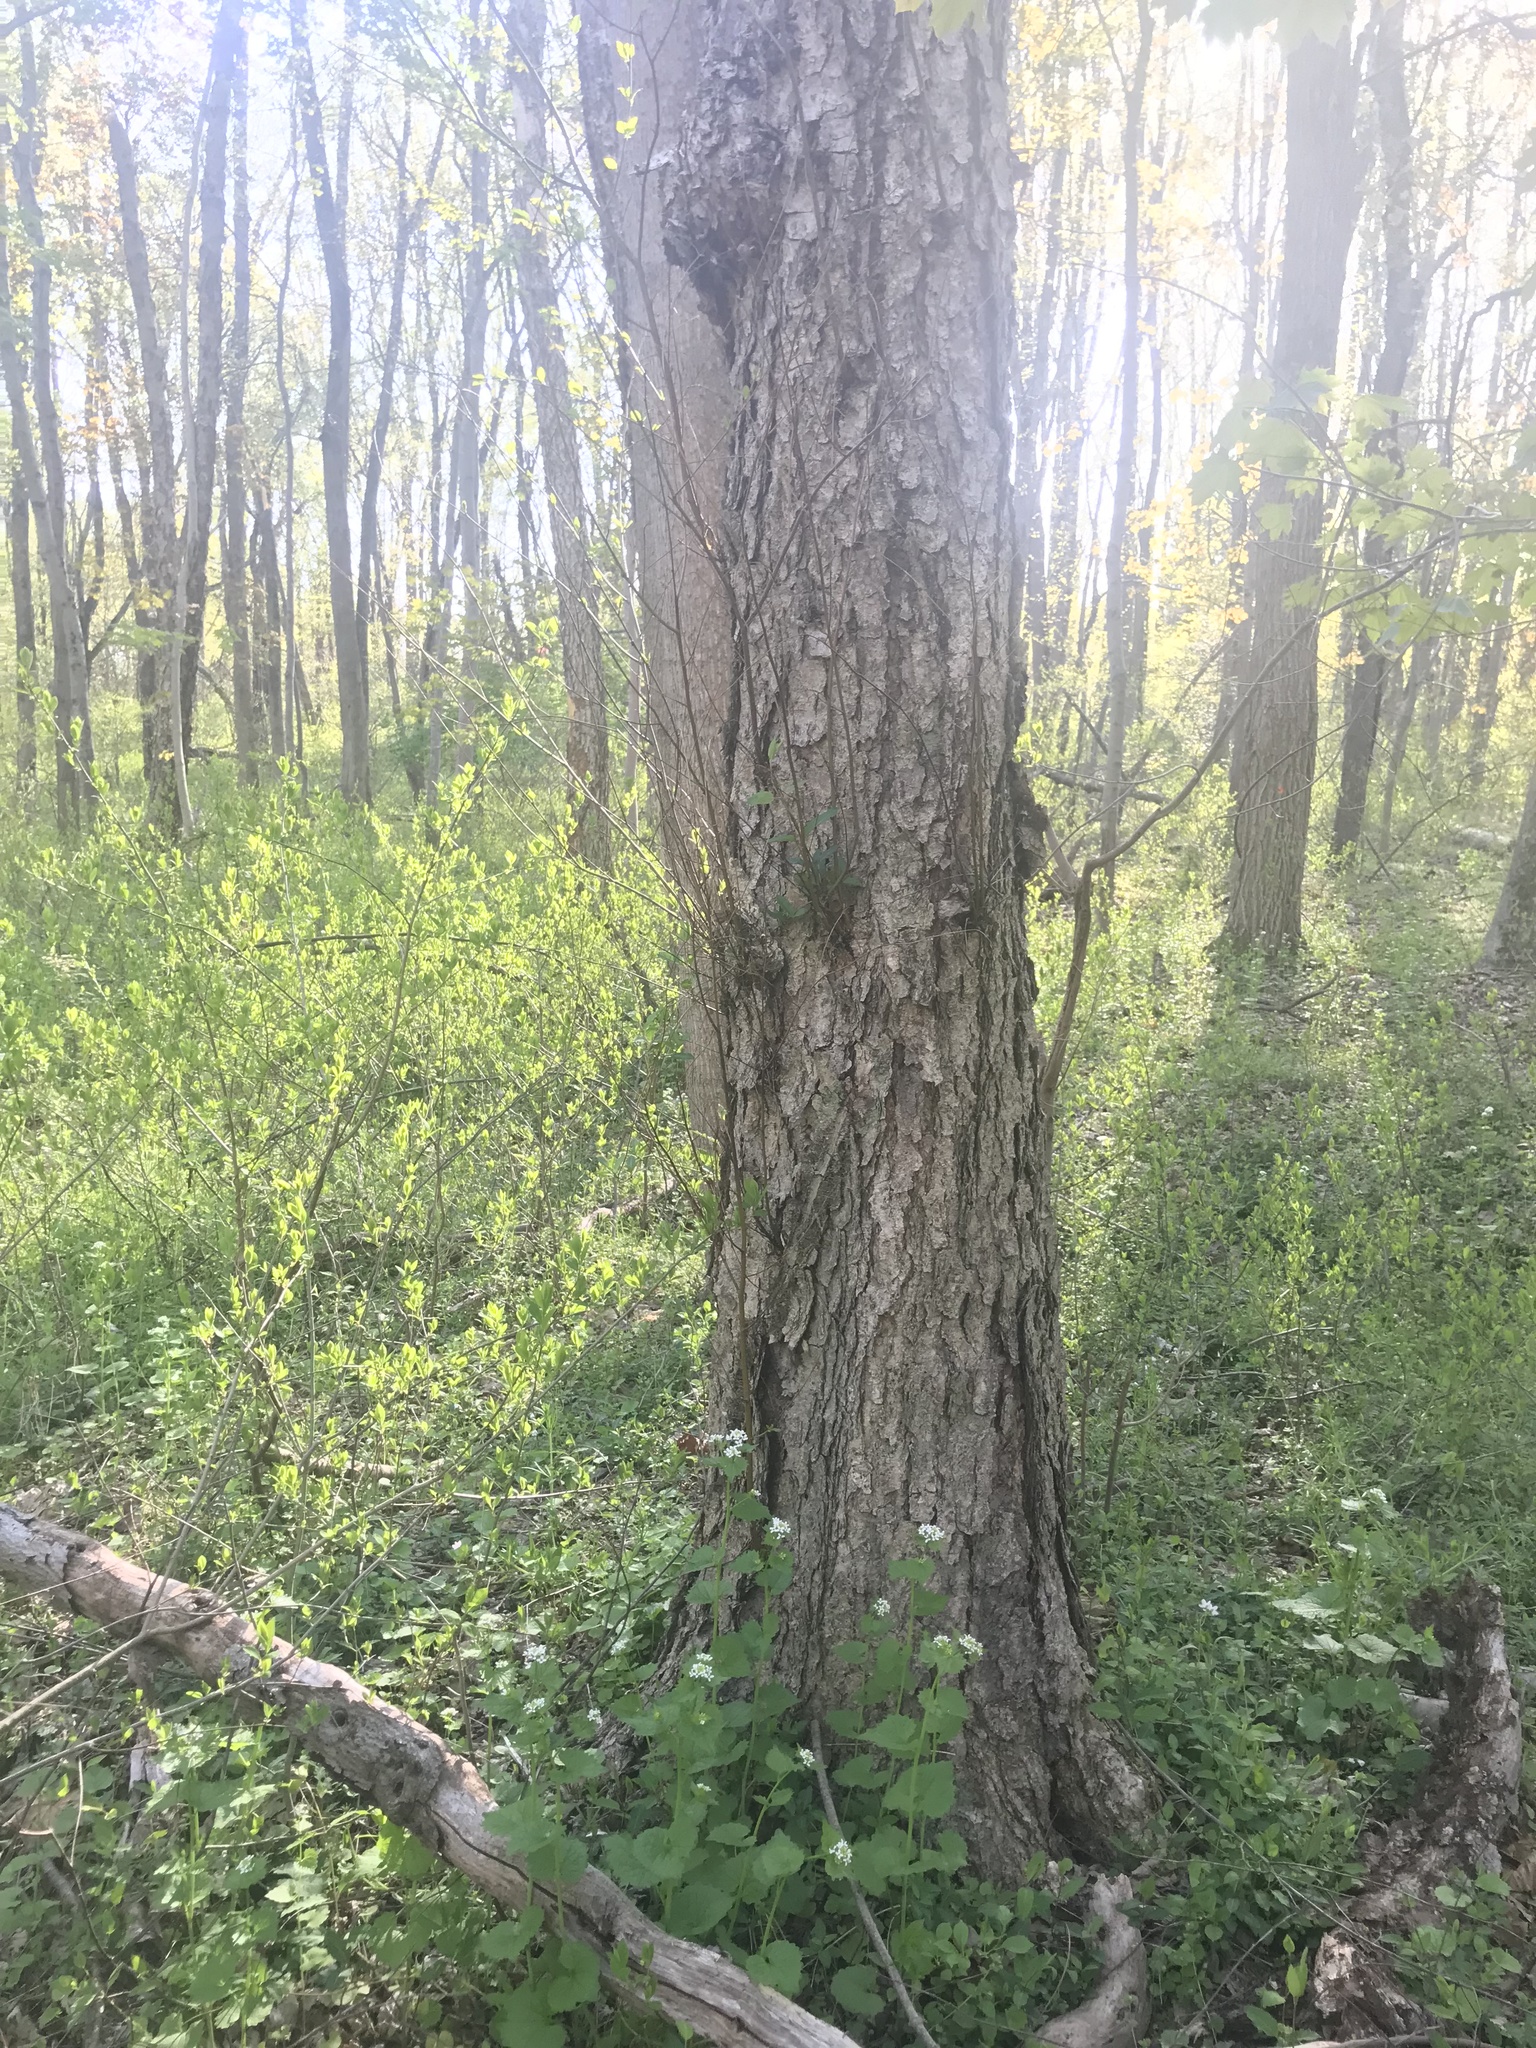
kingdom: Plantae
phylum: Tracheophyta
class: Magnoliopsida
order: Brassicales
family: Brassicaceae
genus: Alliaria
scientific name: Alliaria petiolata
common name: Garlic mustard
